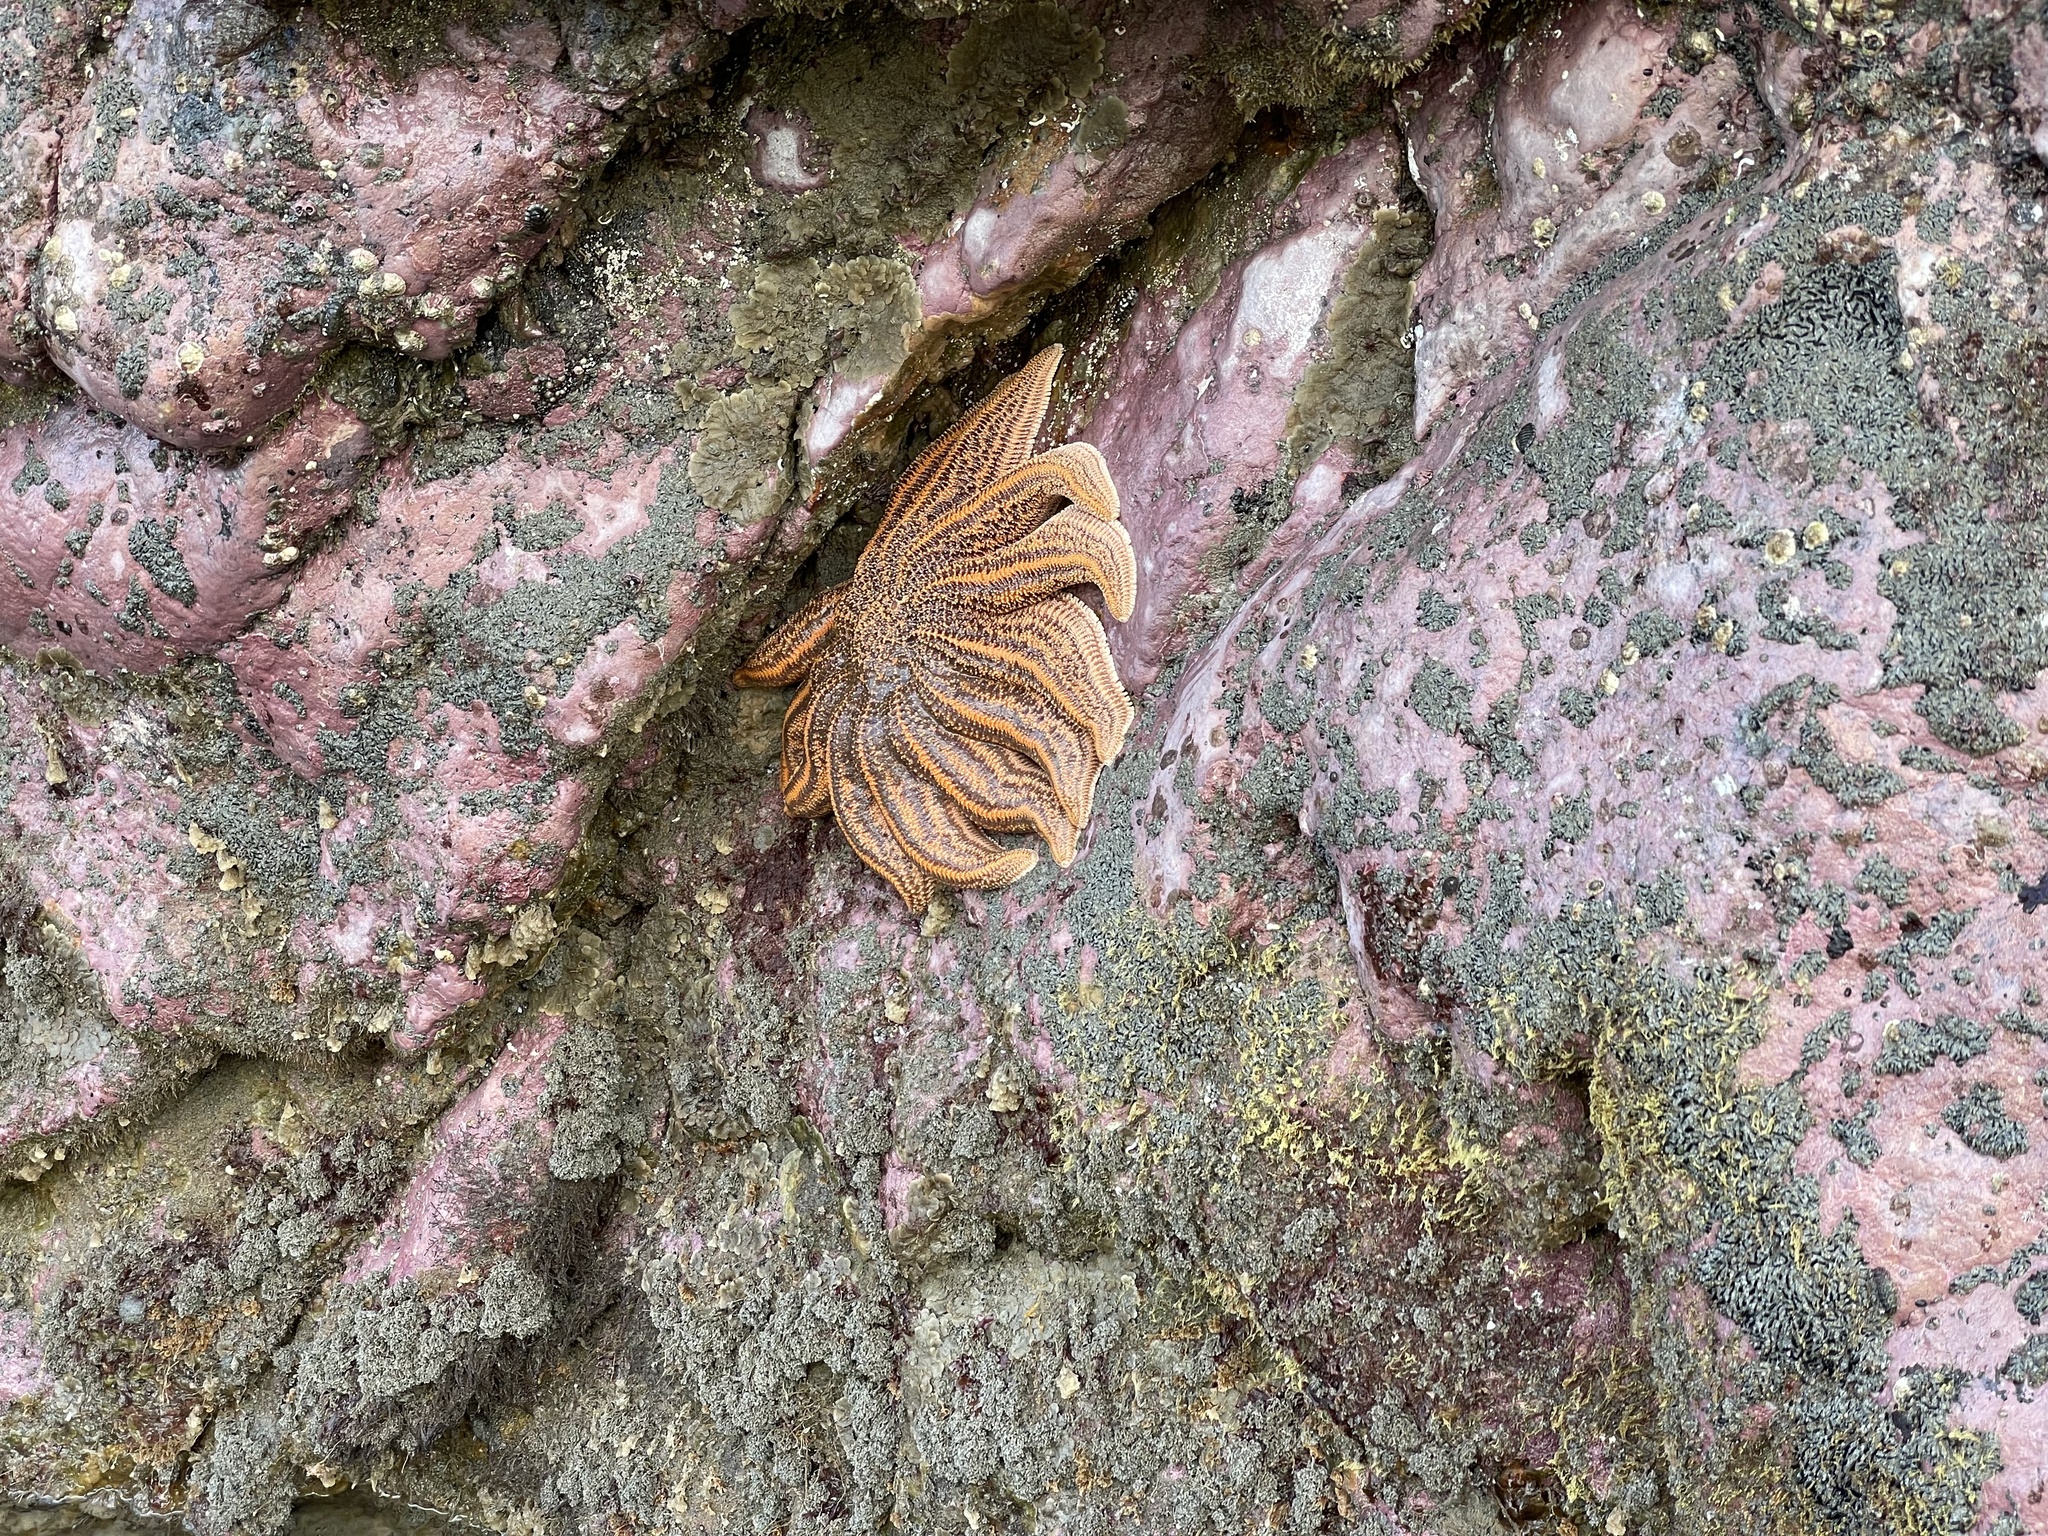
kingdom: Animalia
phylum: Echinodermata
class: Asteroidea
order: Forcipulatida
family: Stichasteridae
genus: Stichaster
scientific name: Stichaster australis
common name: Reef starfish
